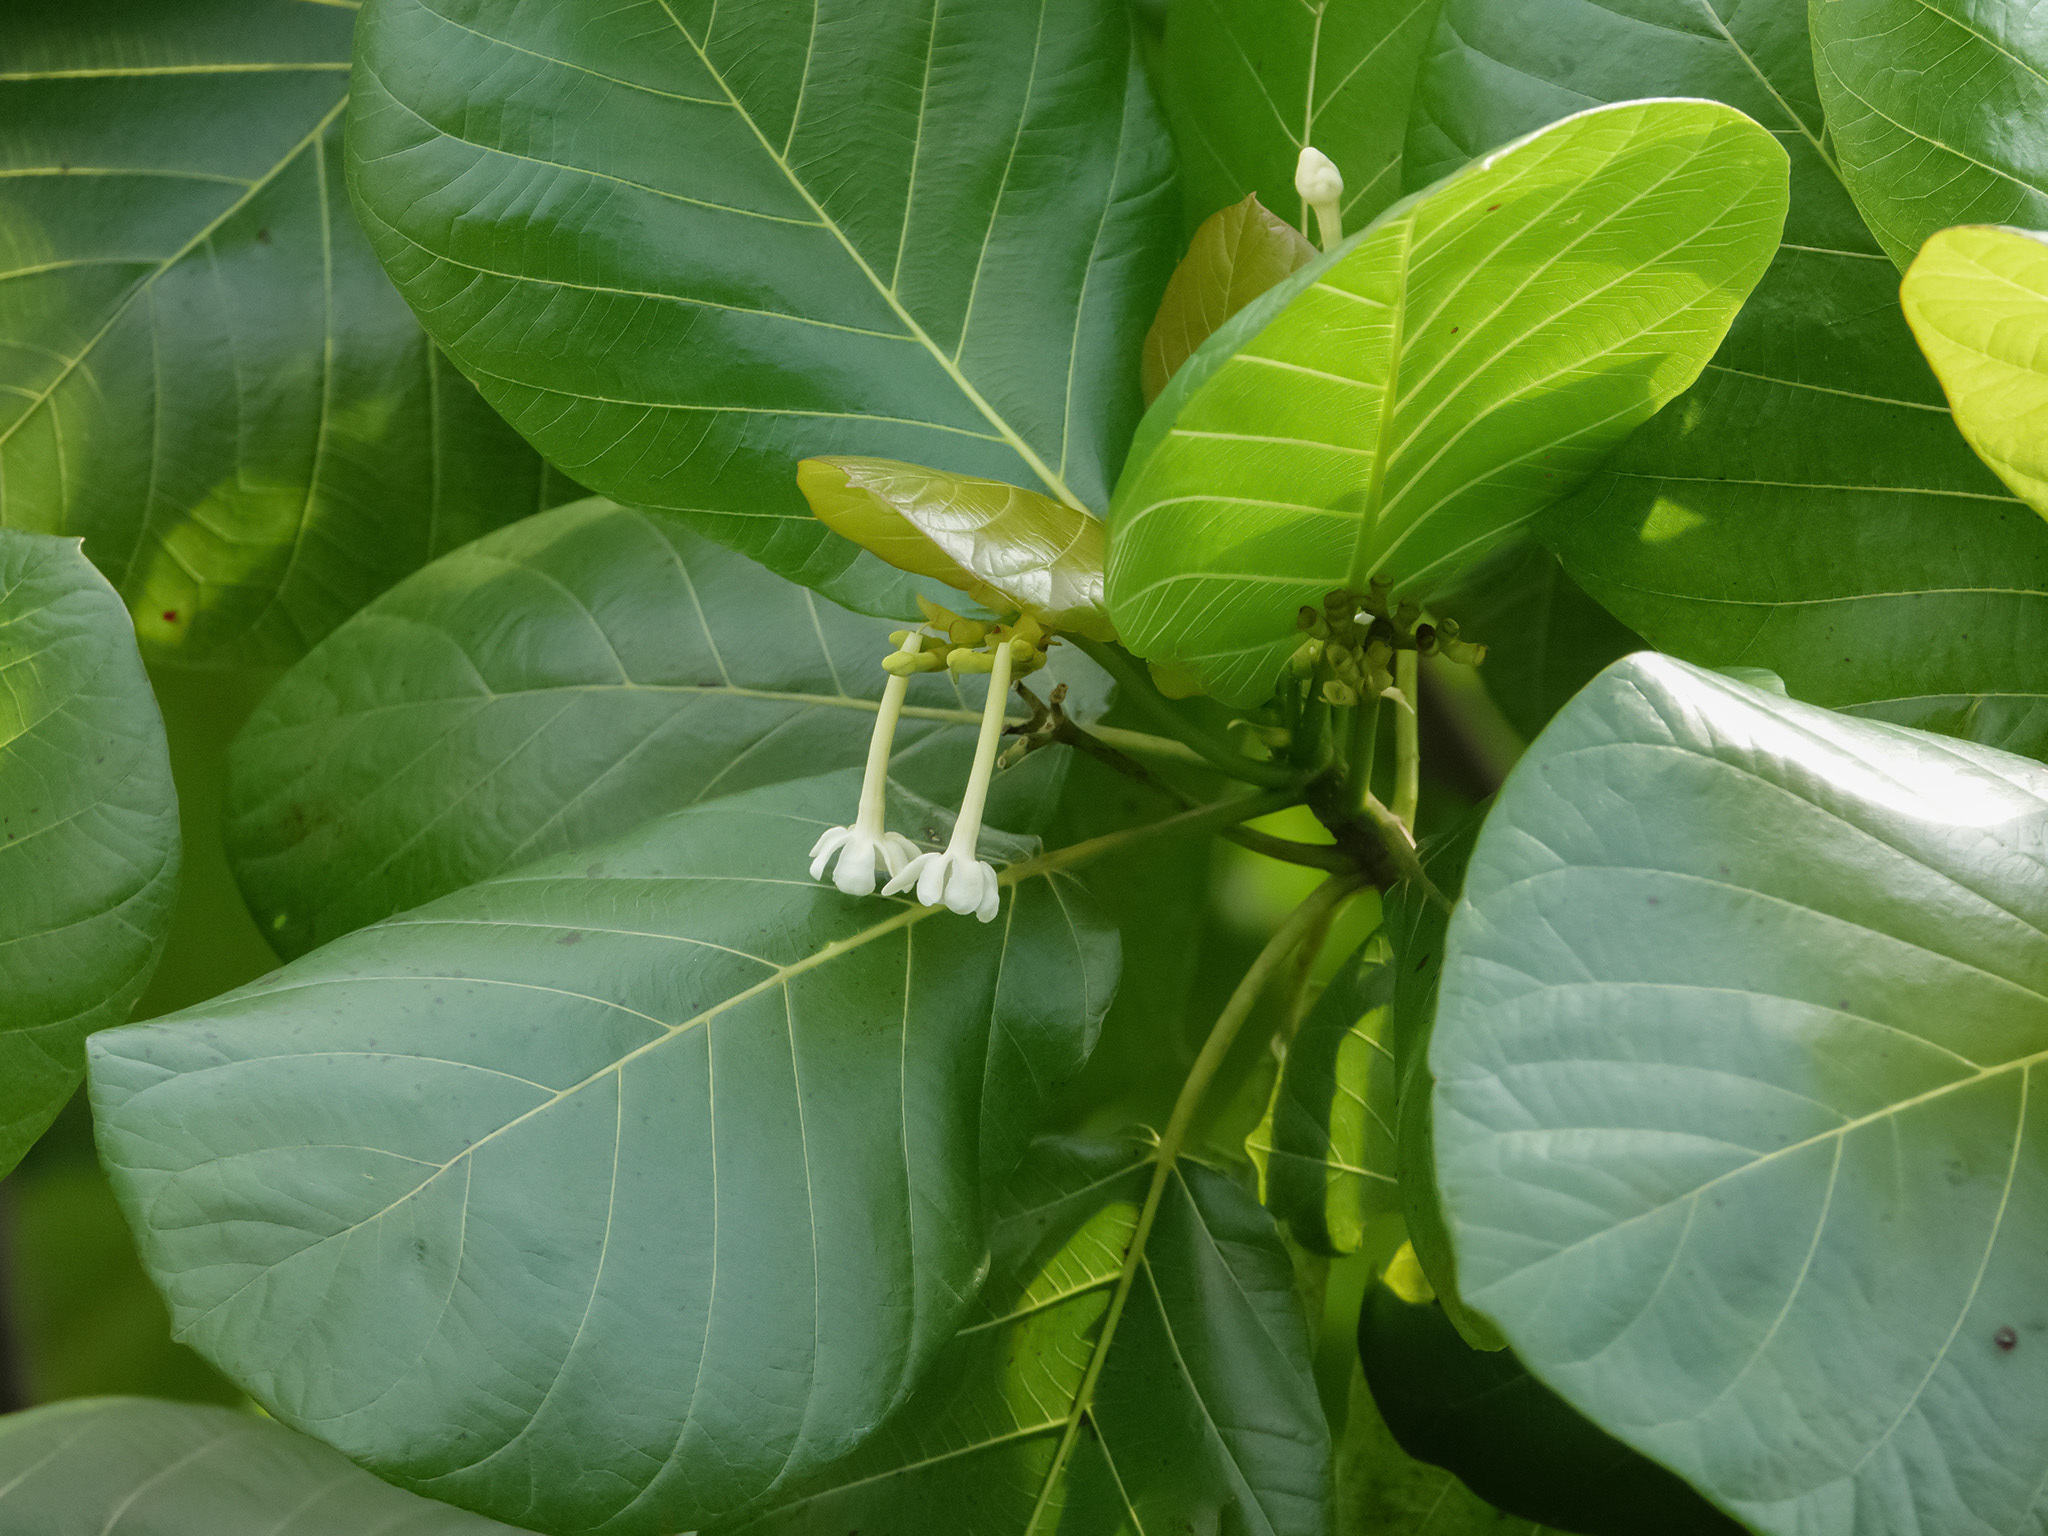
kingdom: Plantae
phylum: Tracheophyta
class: Magnoliopsida
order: Gentianales
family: Rubiaceae
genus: Guettarda
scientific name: Guettarda speciosa
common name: Sea randa
